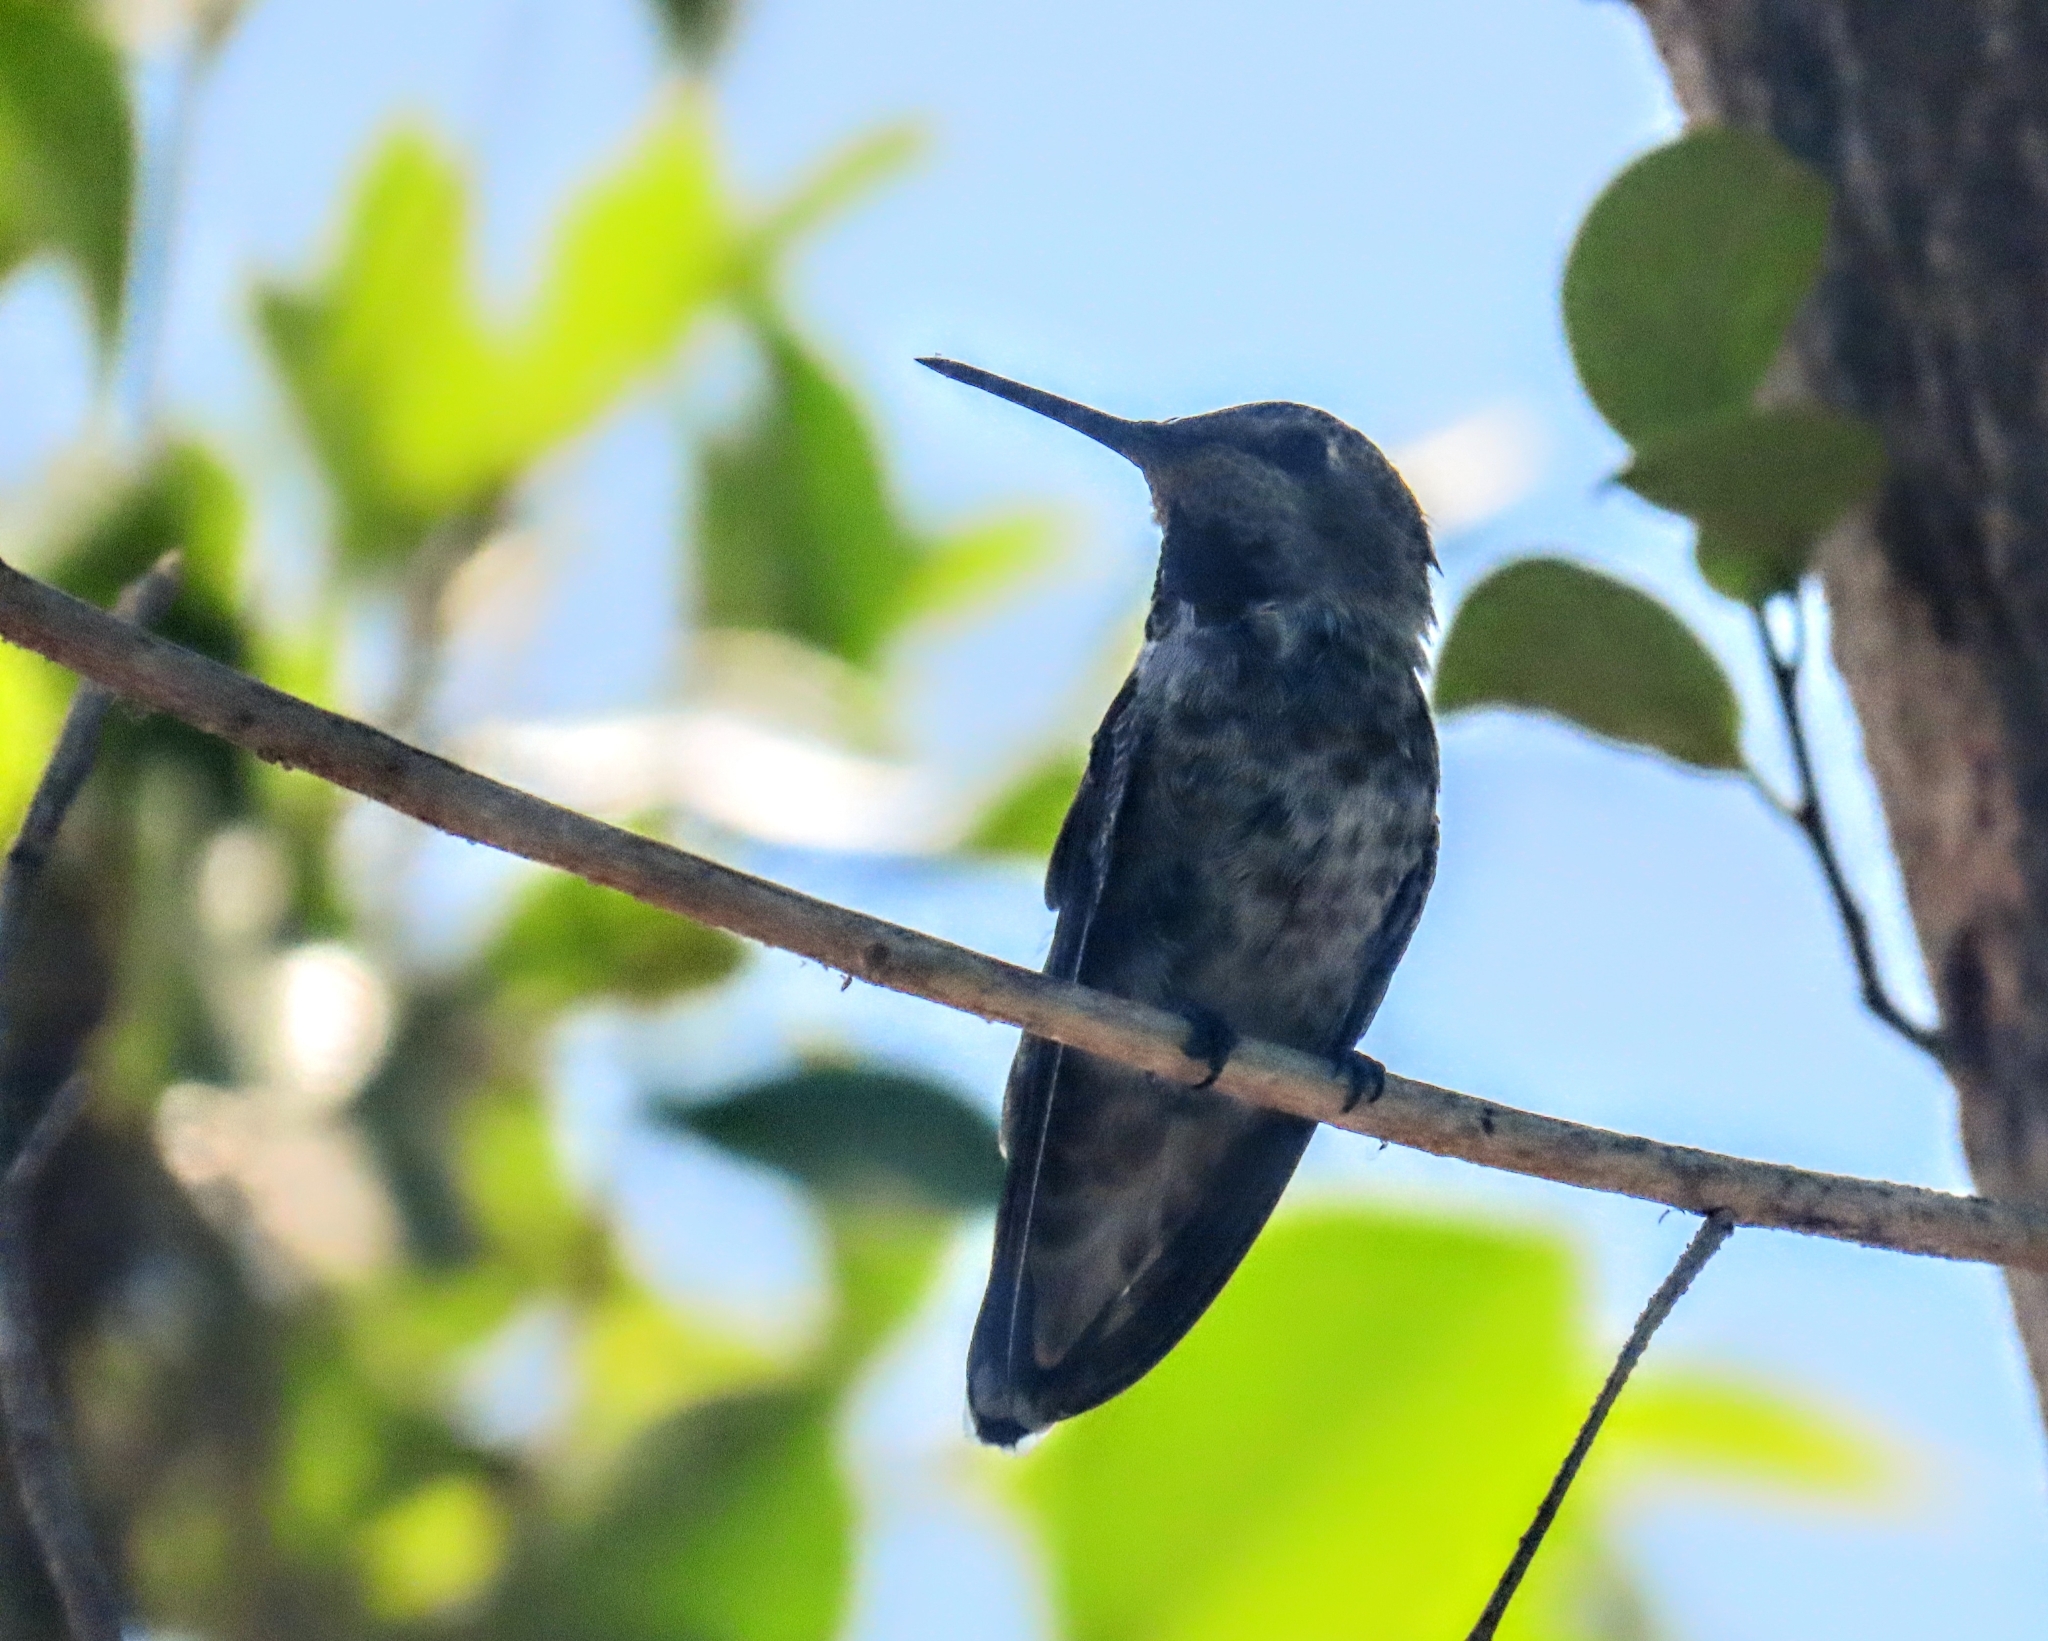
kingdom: Animalia
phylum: Chordata
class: Aves
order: Apodiformes
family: Trochilidae
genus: Calypte
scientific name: Calypte anna
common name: Anna's hummingbird
